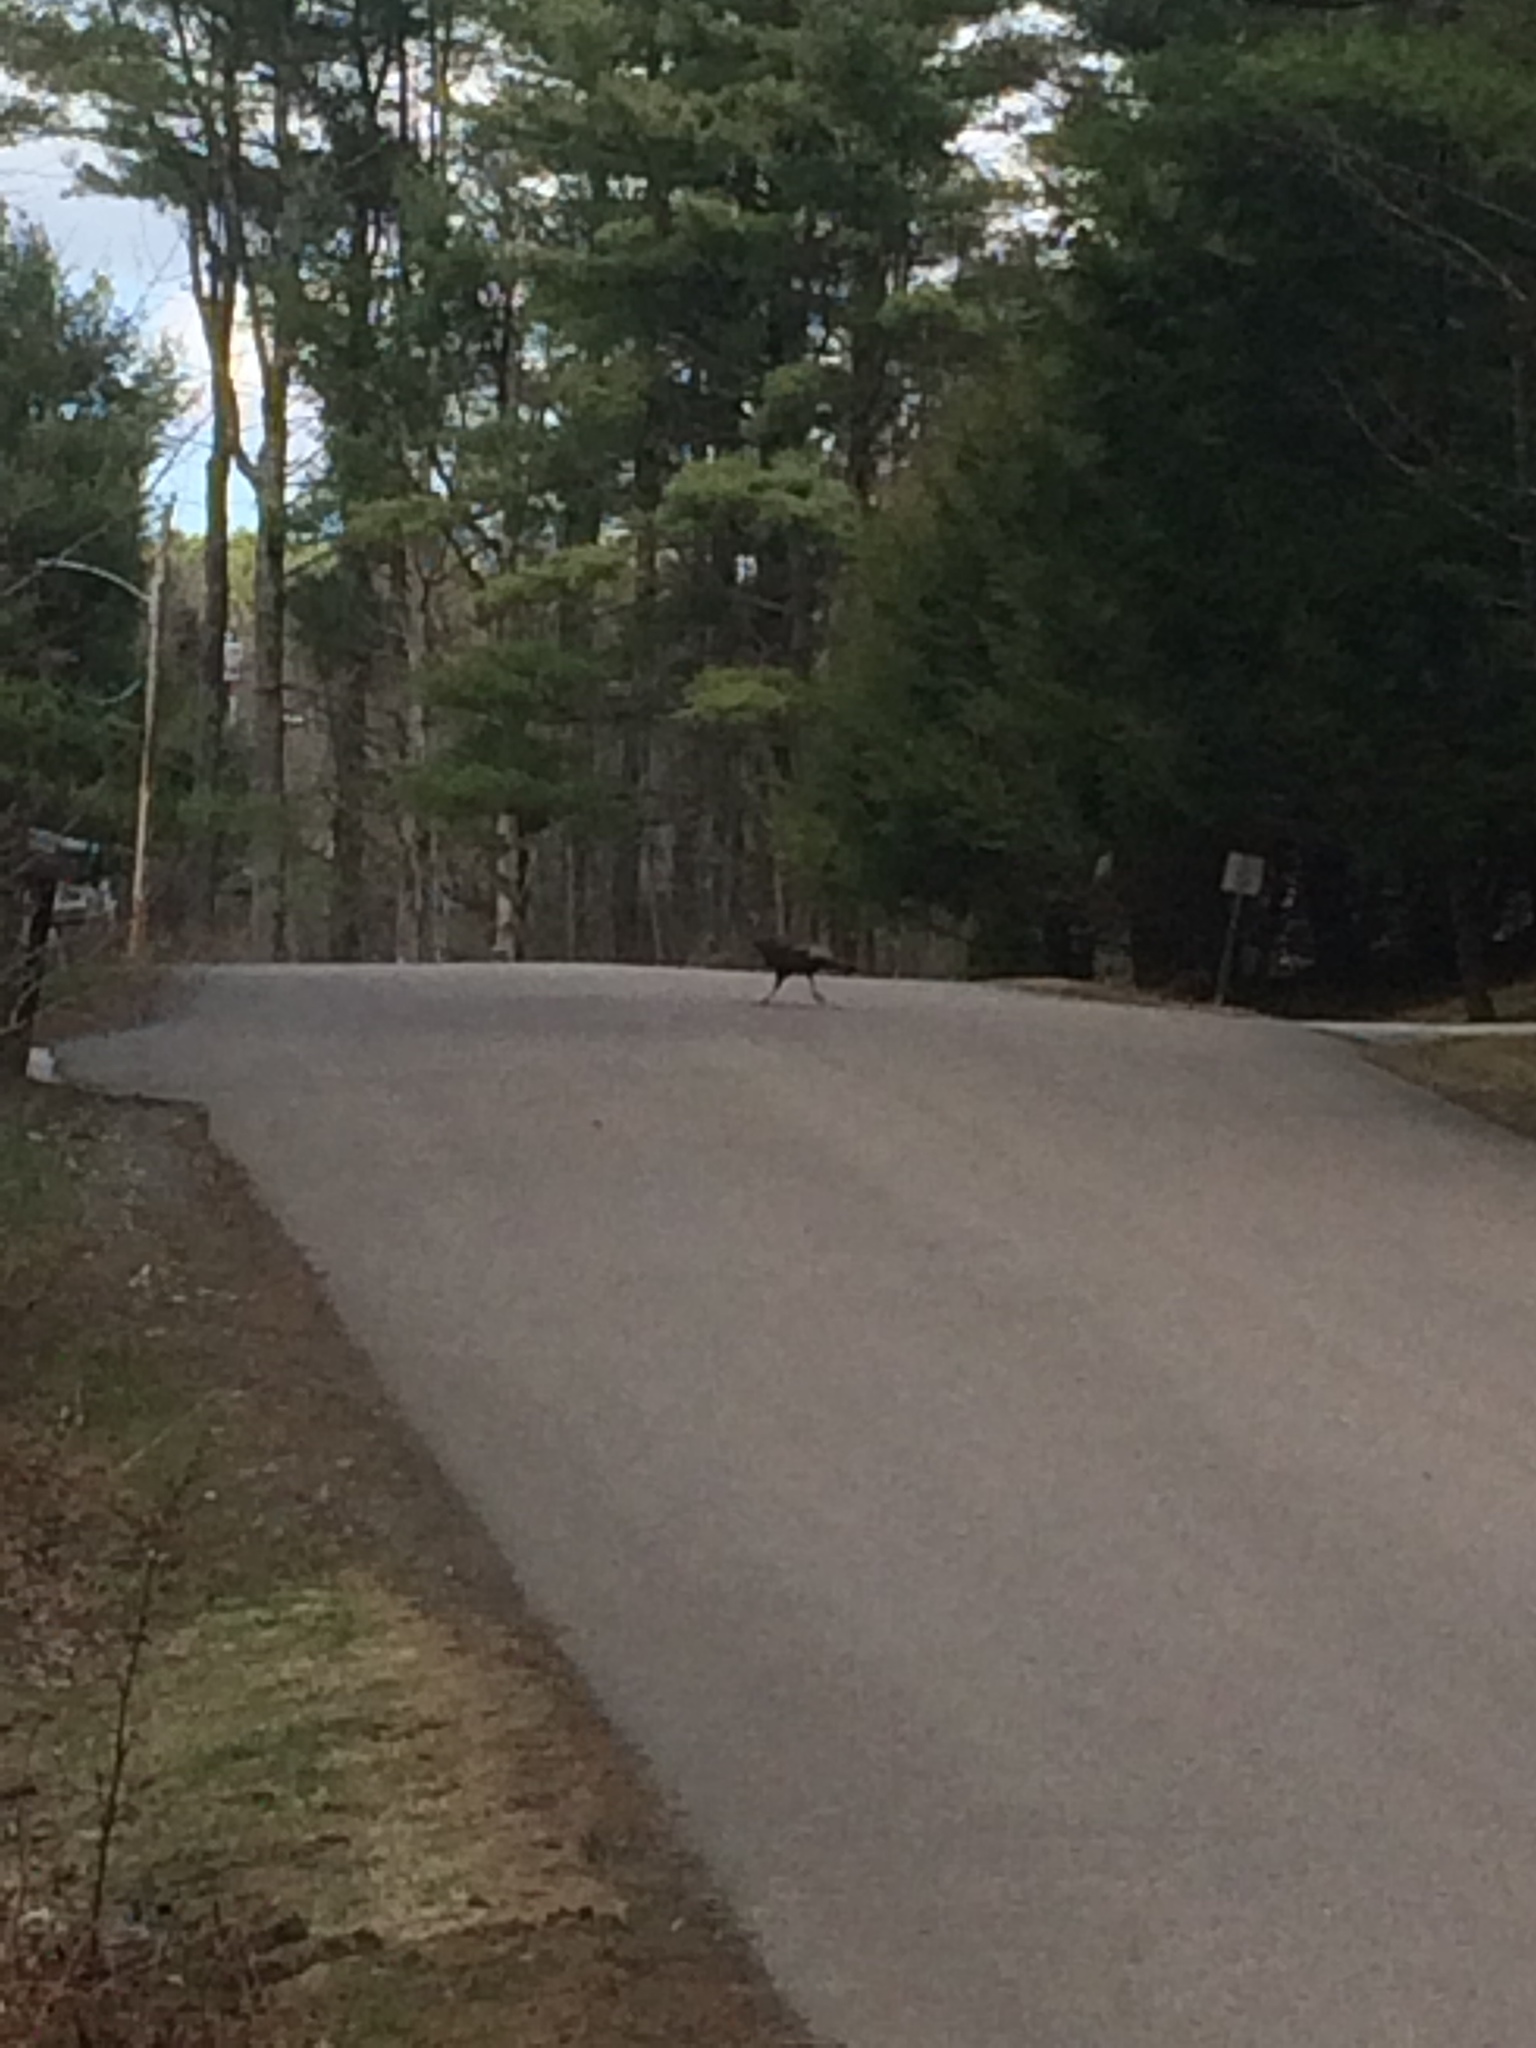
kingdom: Animalia
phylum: Chordata
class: Aves
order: Galliformes
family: Phasianidae
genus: Meleagris
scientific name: Meleagris gallopavo
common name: Wild turkey
